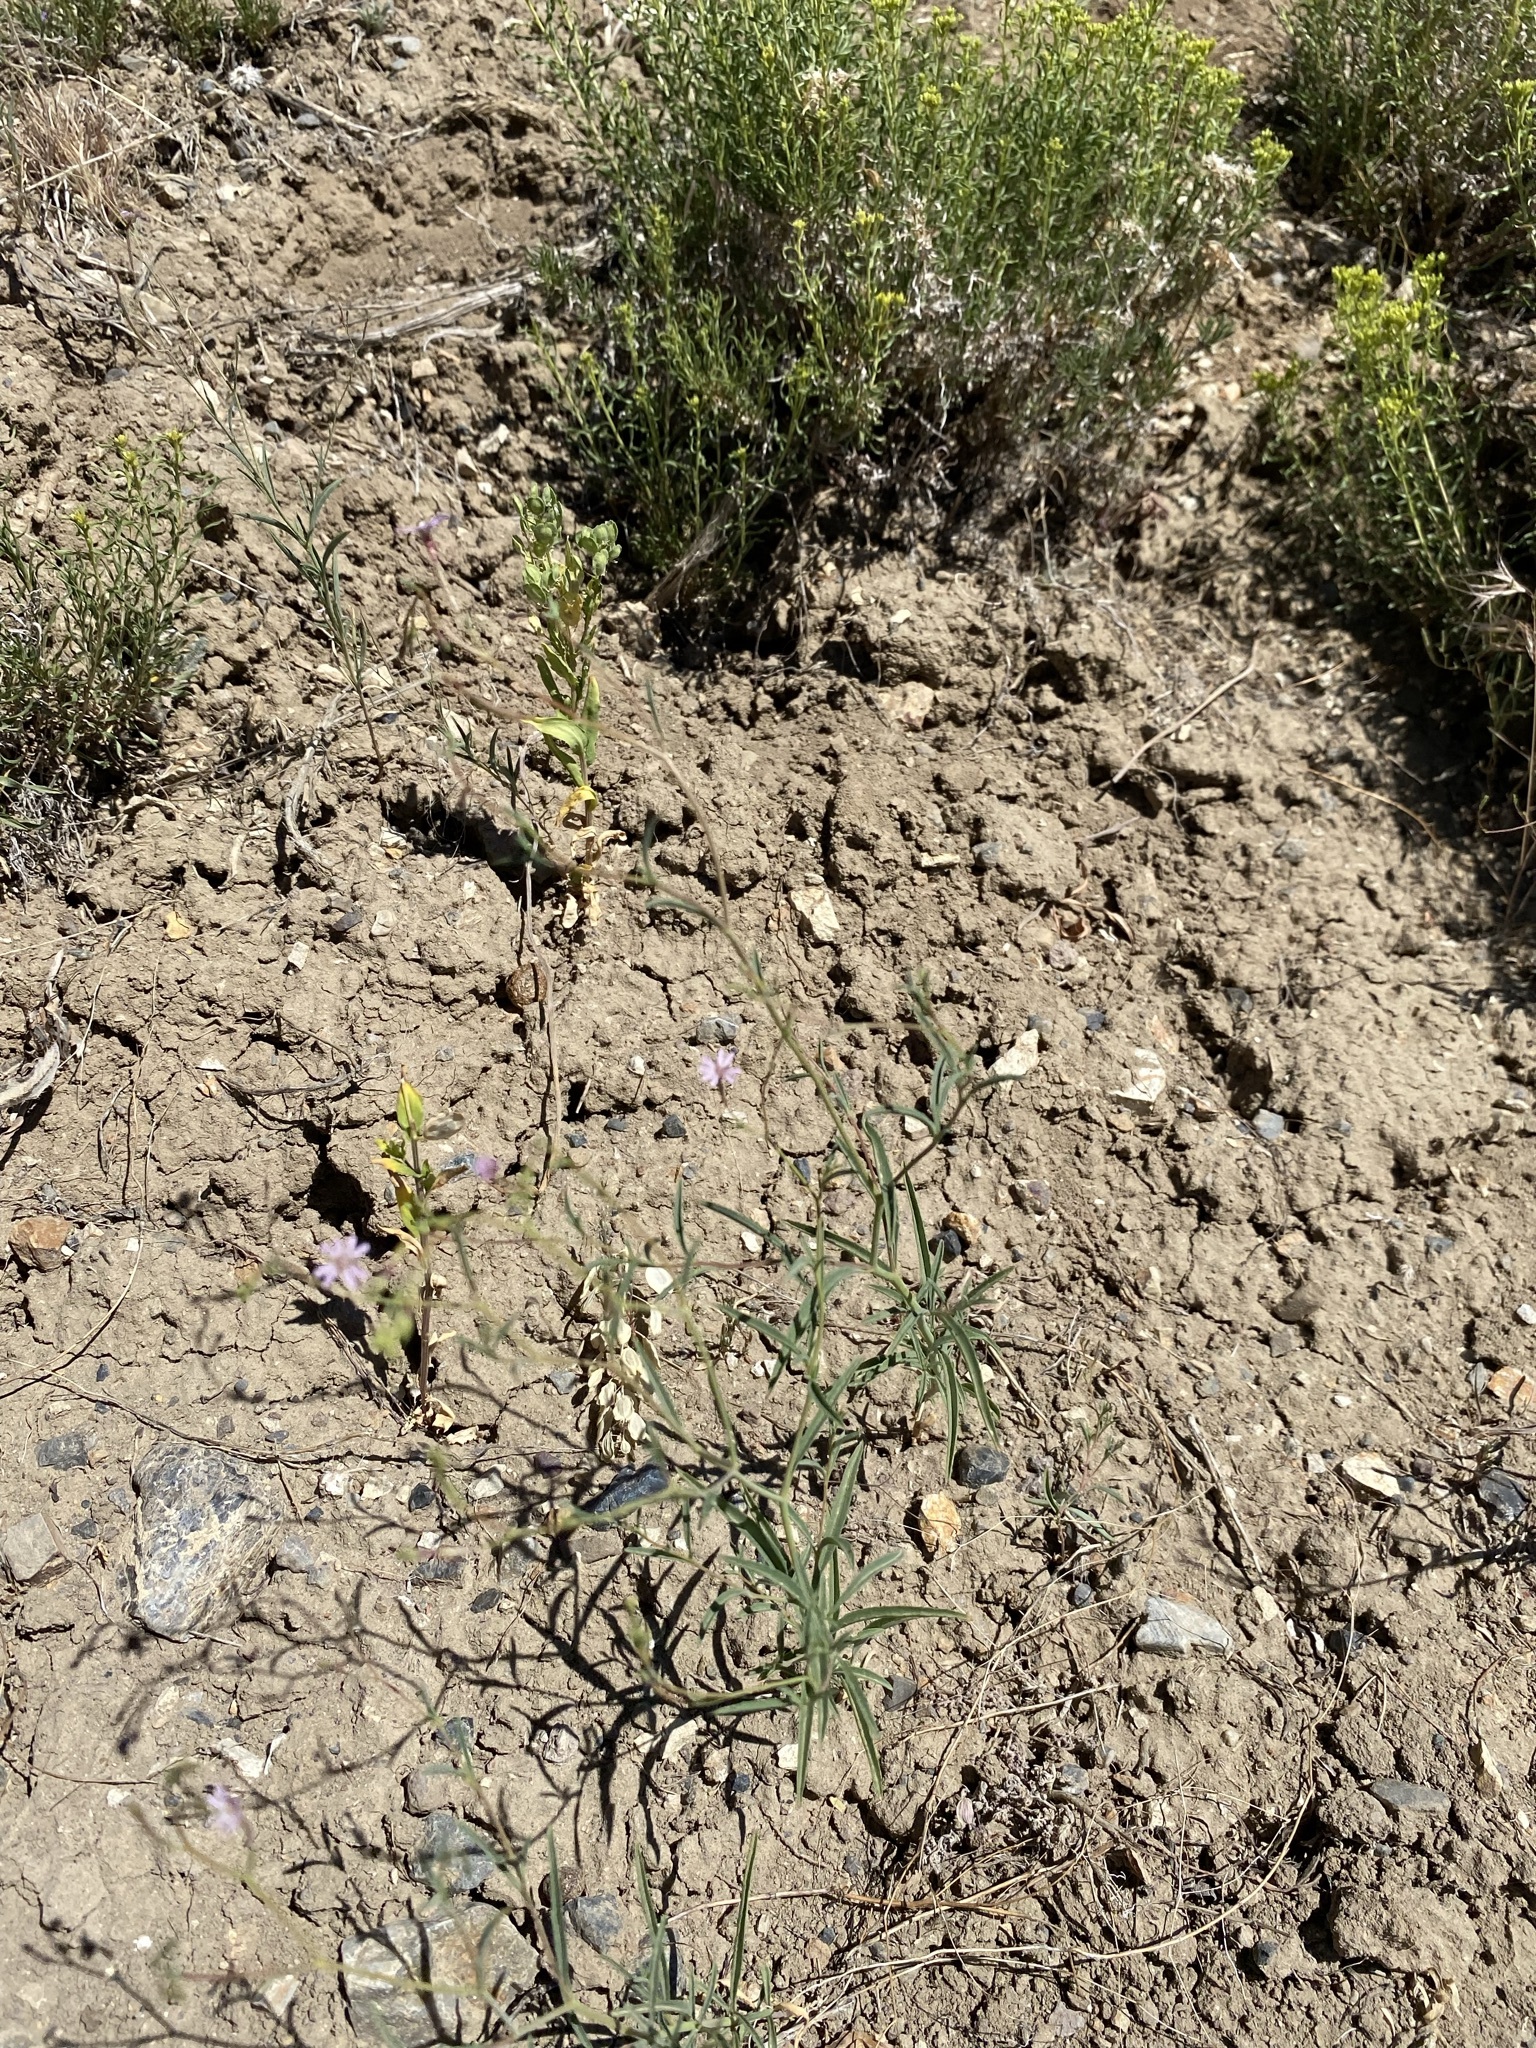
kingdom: Plantae
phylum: Tracheophyta
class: Magnoliopsida
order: Myrtales
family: Onagraceae
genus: Epilobium
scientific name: Epilobium brachycarpum
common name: Annual willowherb
